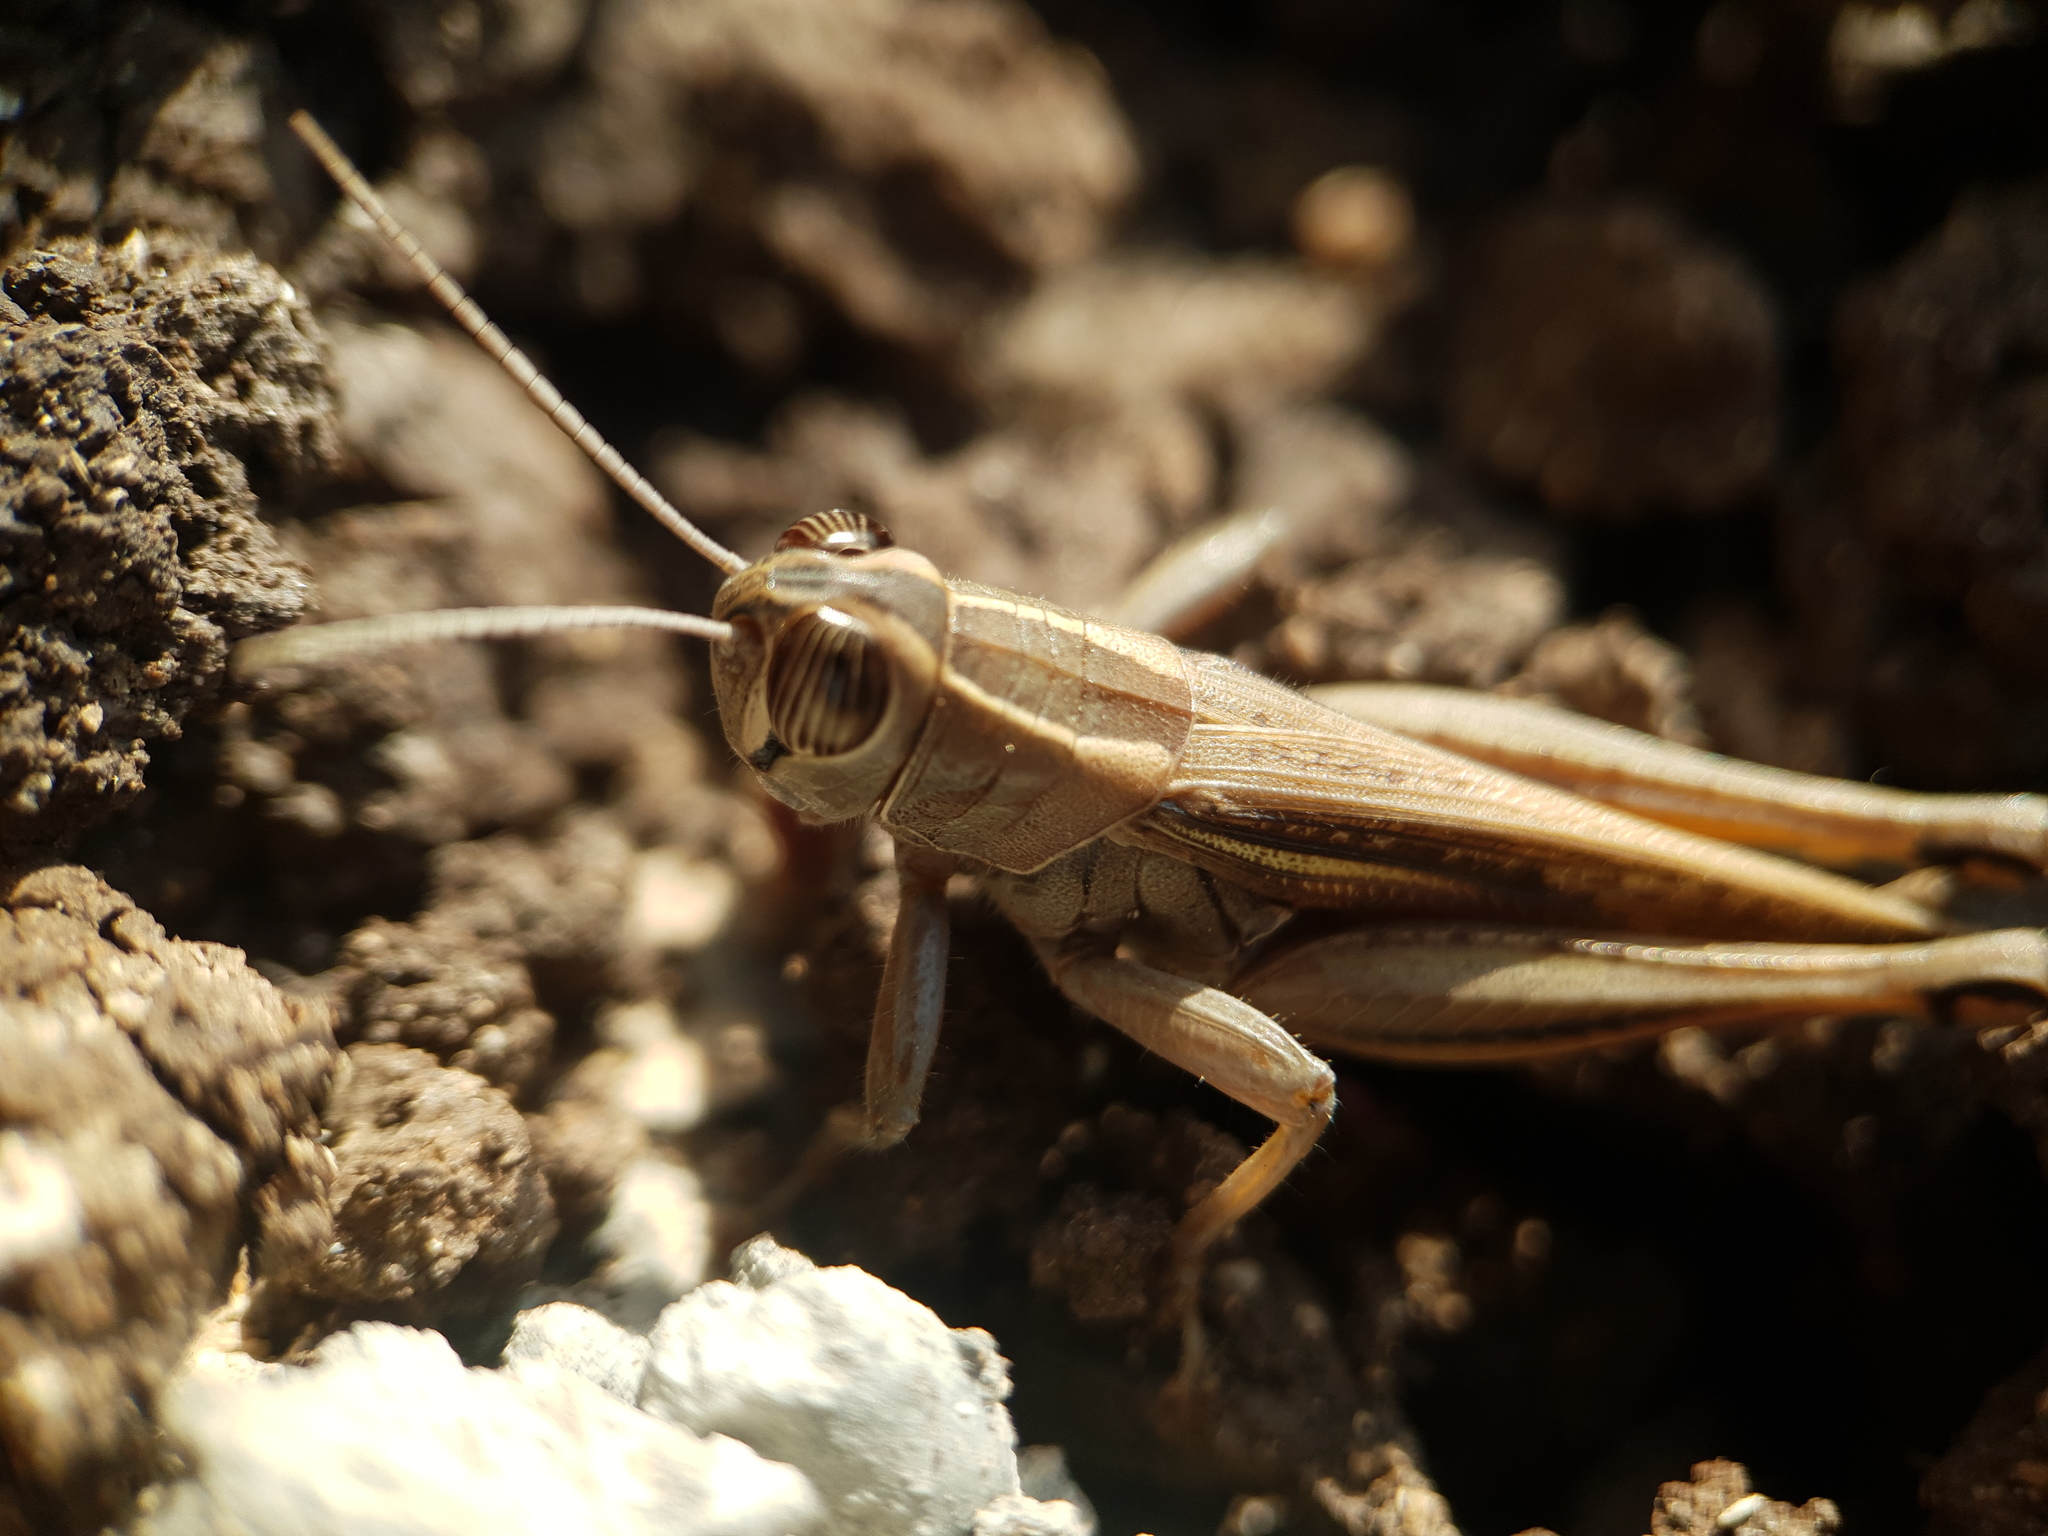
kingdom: Animalia
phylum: Arthropoda
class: Insecta
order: Orthoptera
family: Acrididae
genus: Eyprepocnemis
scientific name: Eyprepocnemis plorans
